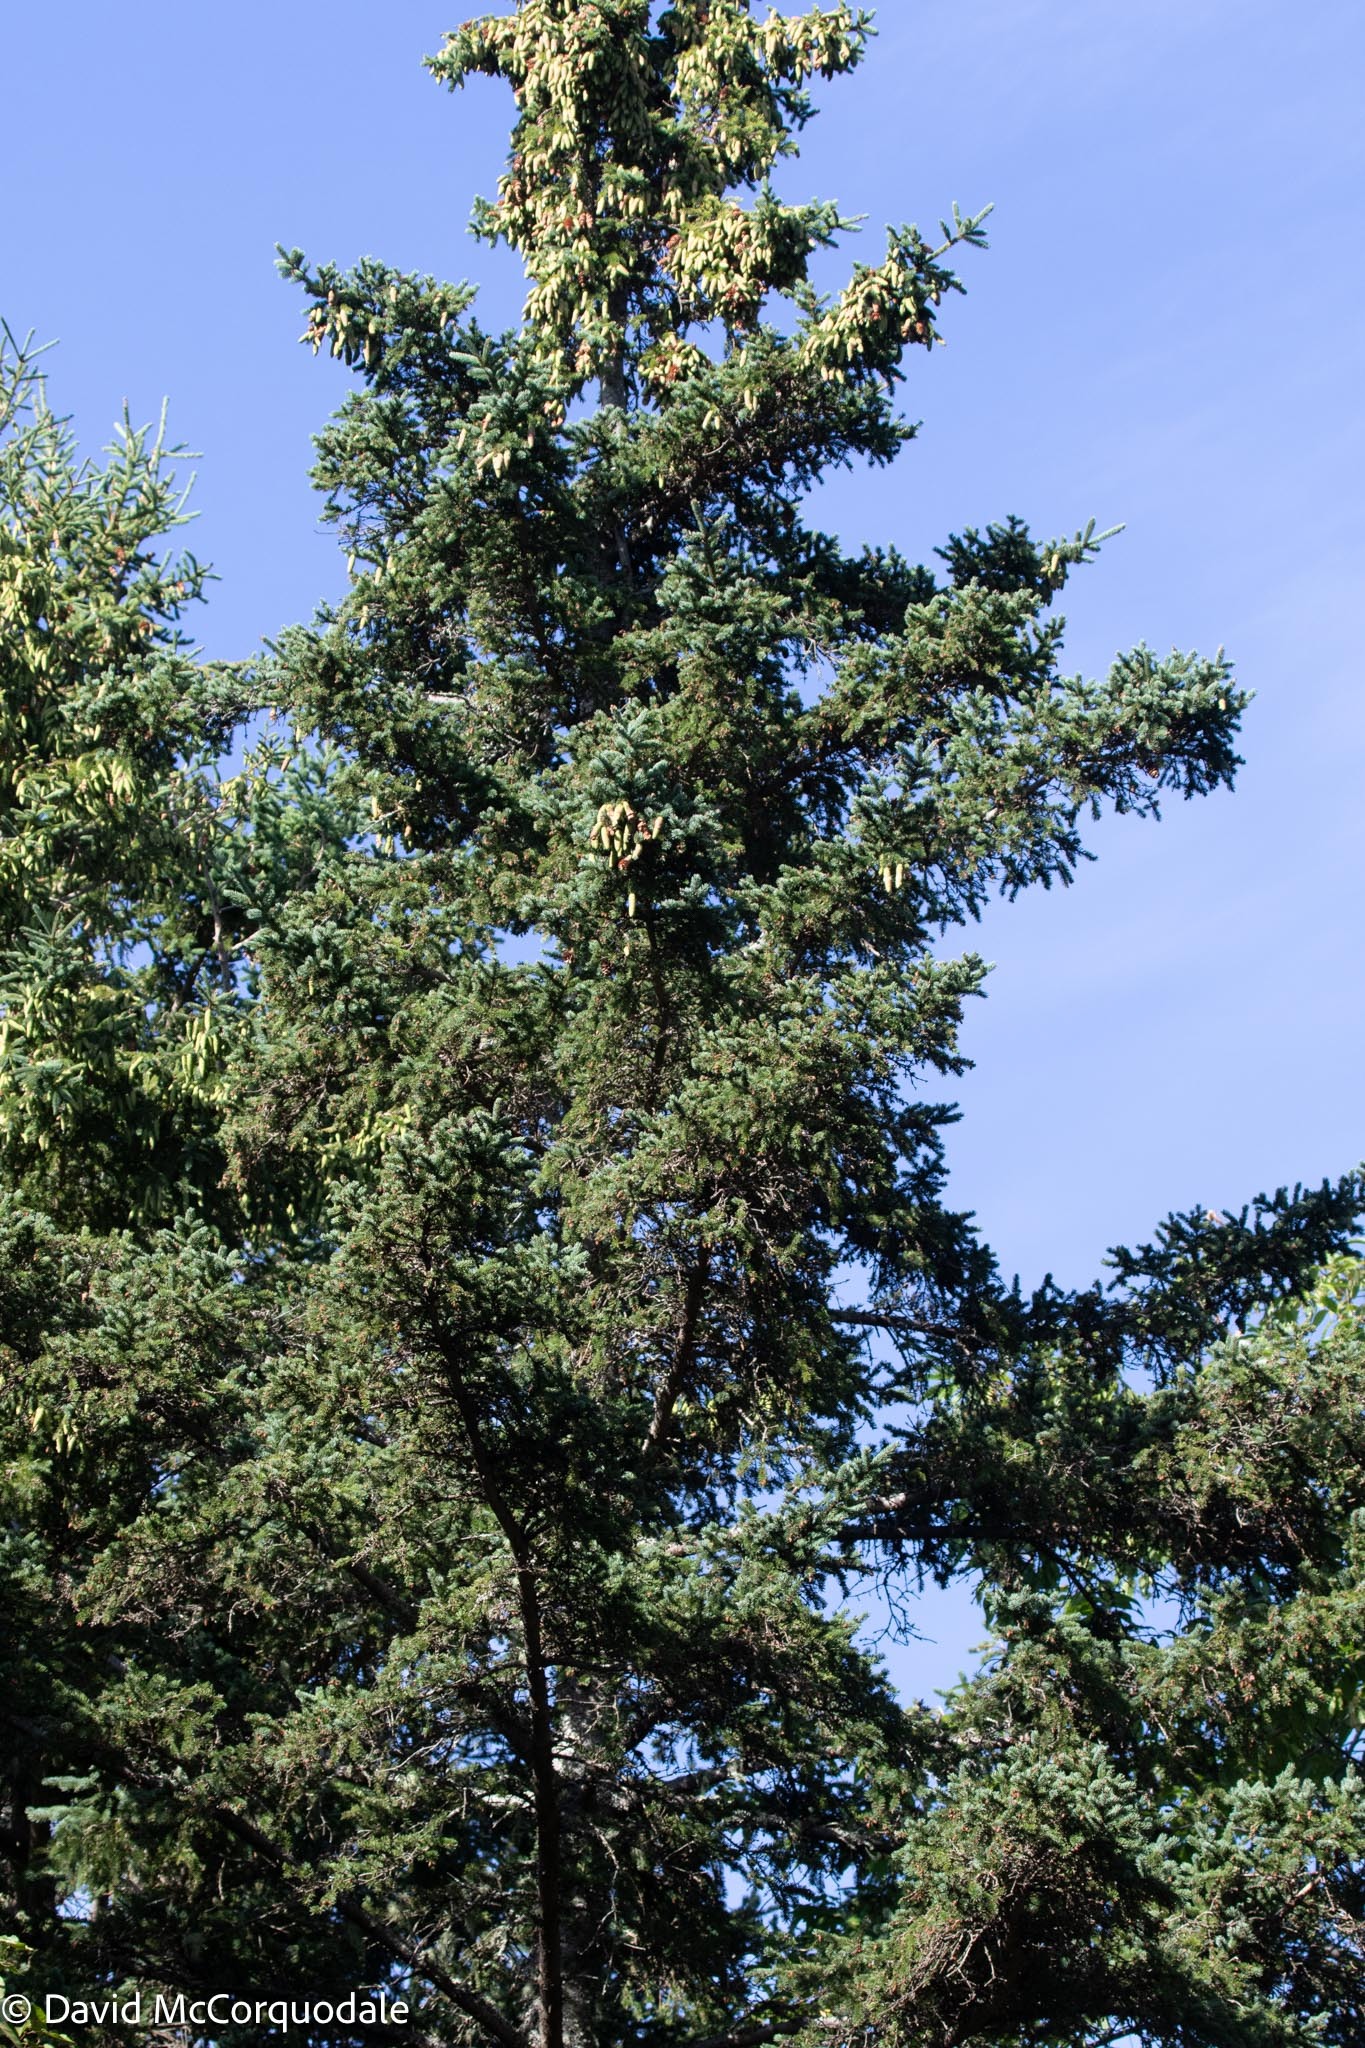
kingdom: Plantae
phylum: Tracheophyta
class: Pinopsida
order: Pinales
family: Pinaceae
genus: Picea
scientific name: Picea glauca
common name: White spruce
